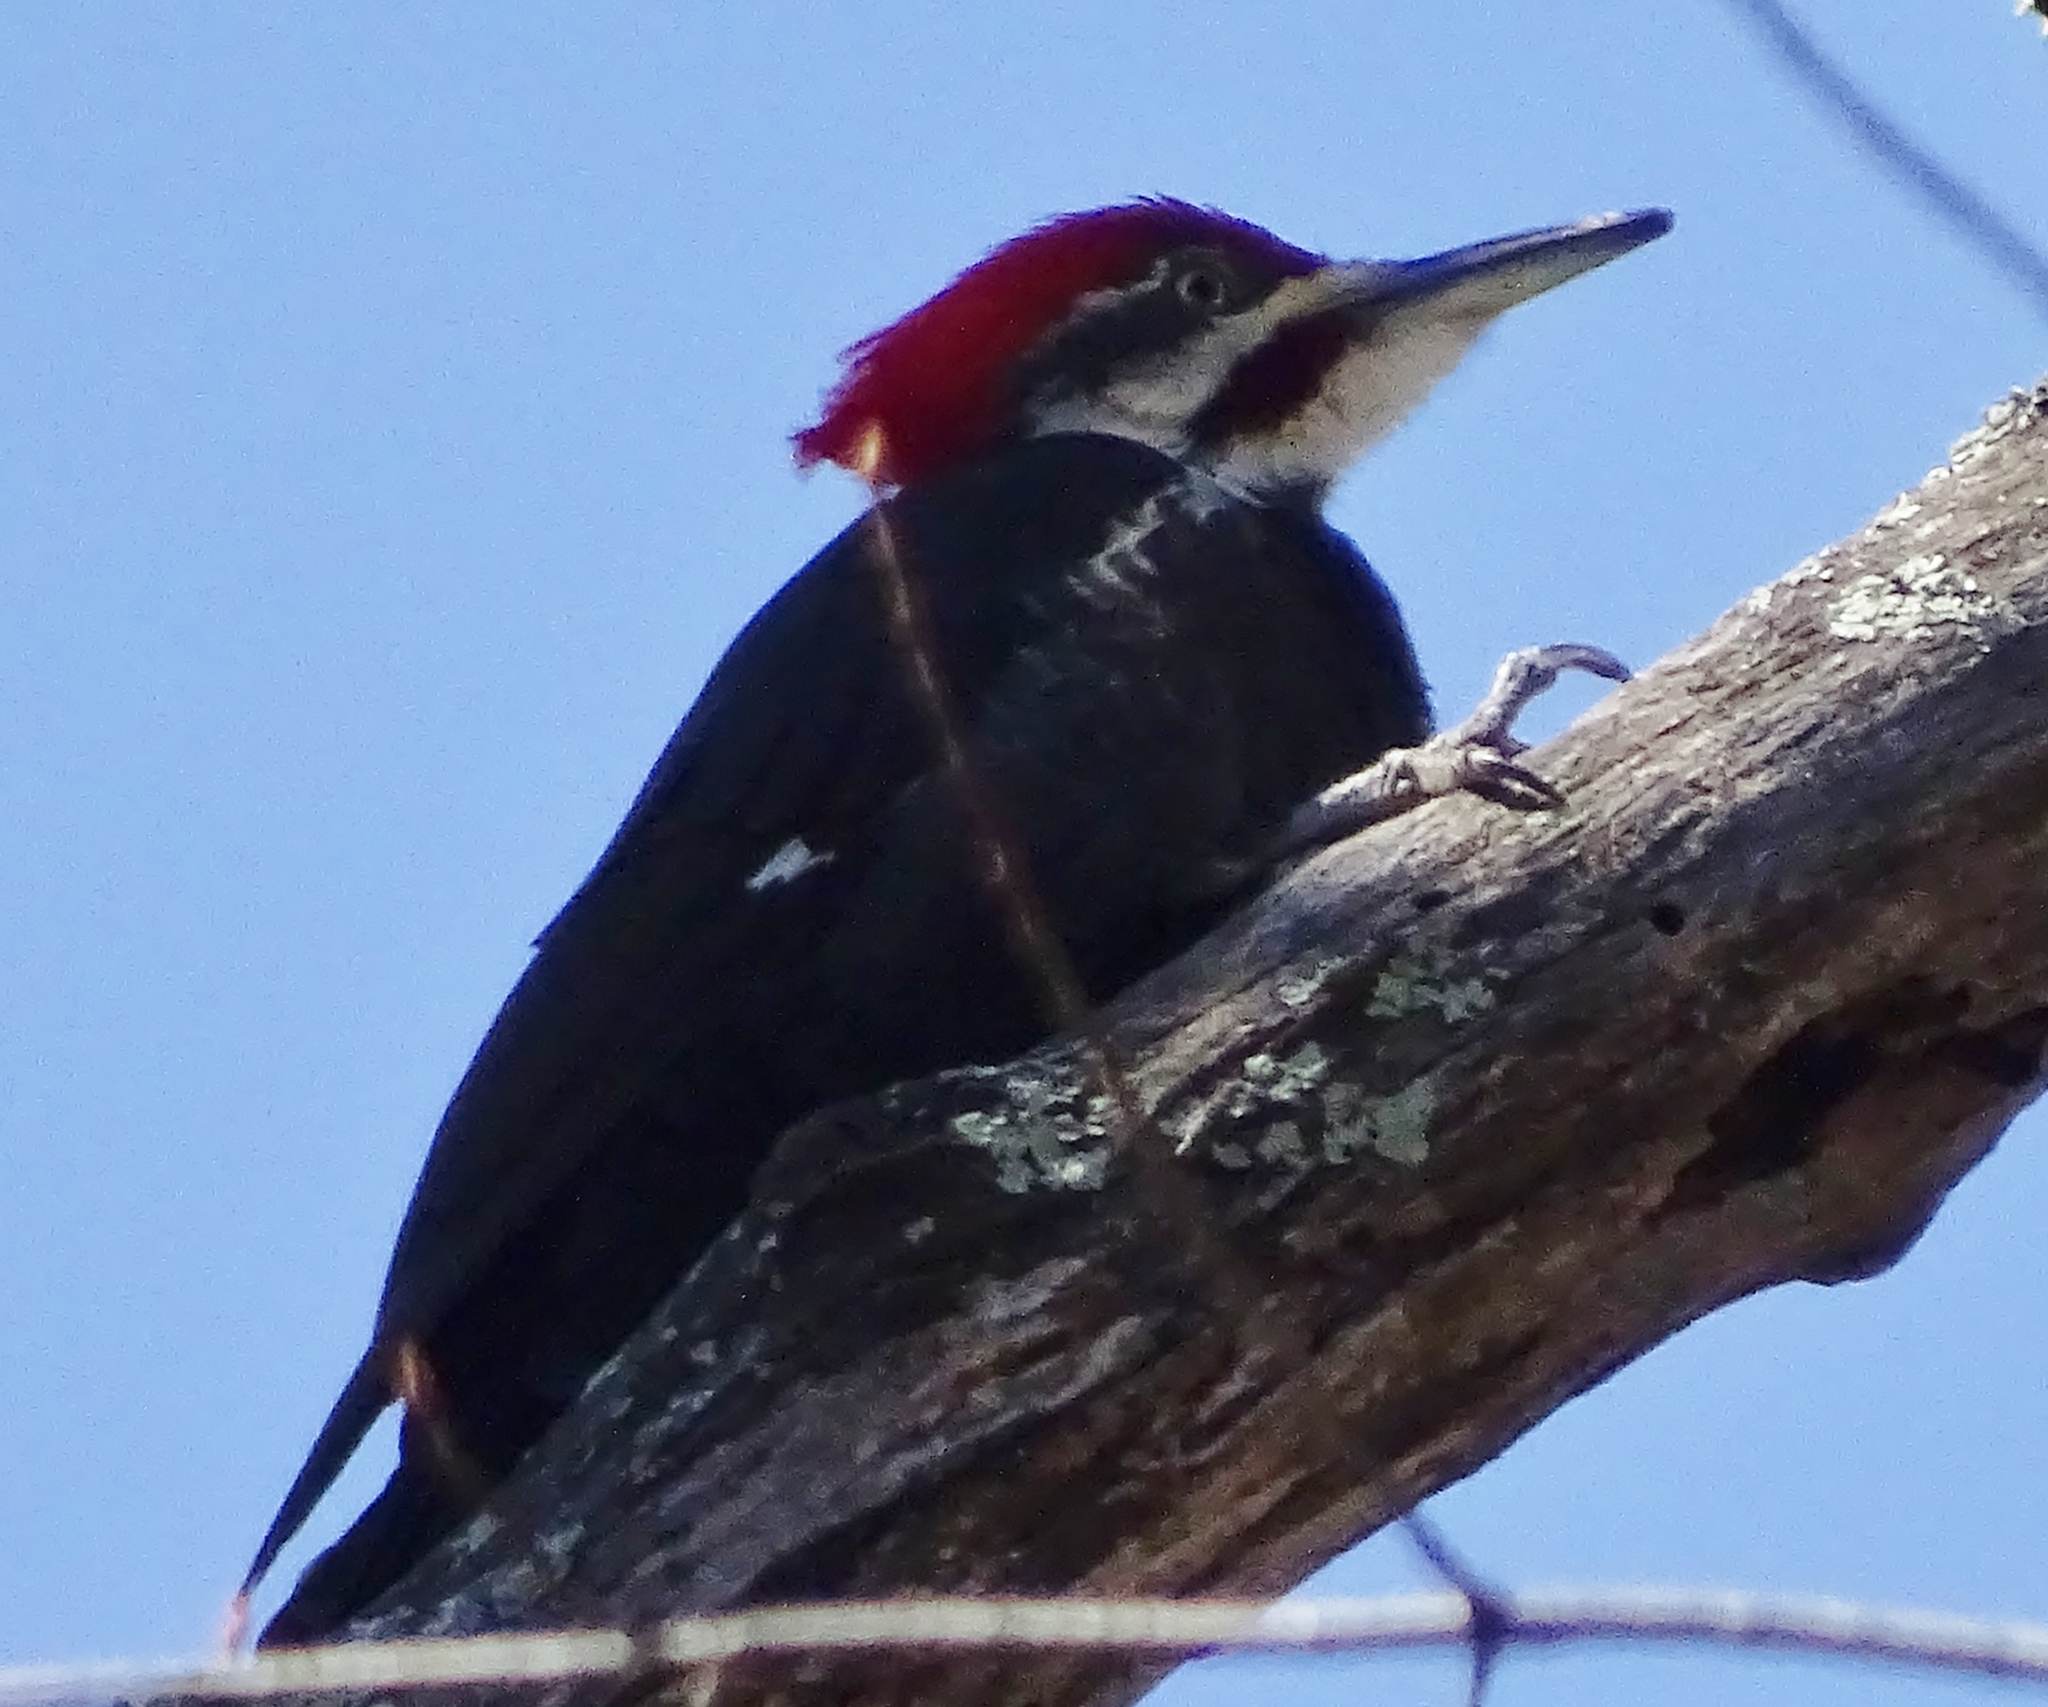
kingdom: Animalia
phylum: Chordata
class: Aves
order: Piciformes
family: Picidae
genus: Dryocopus
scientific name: Dryocopus pileatus
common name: Pileated woodpecker
